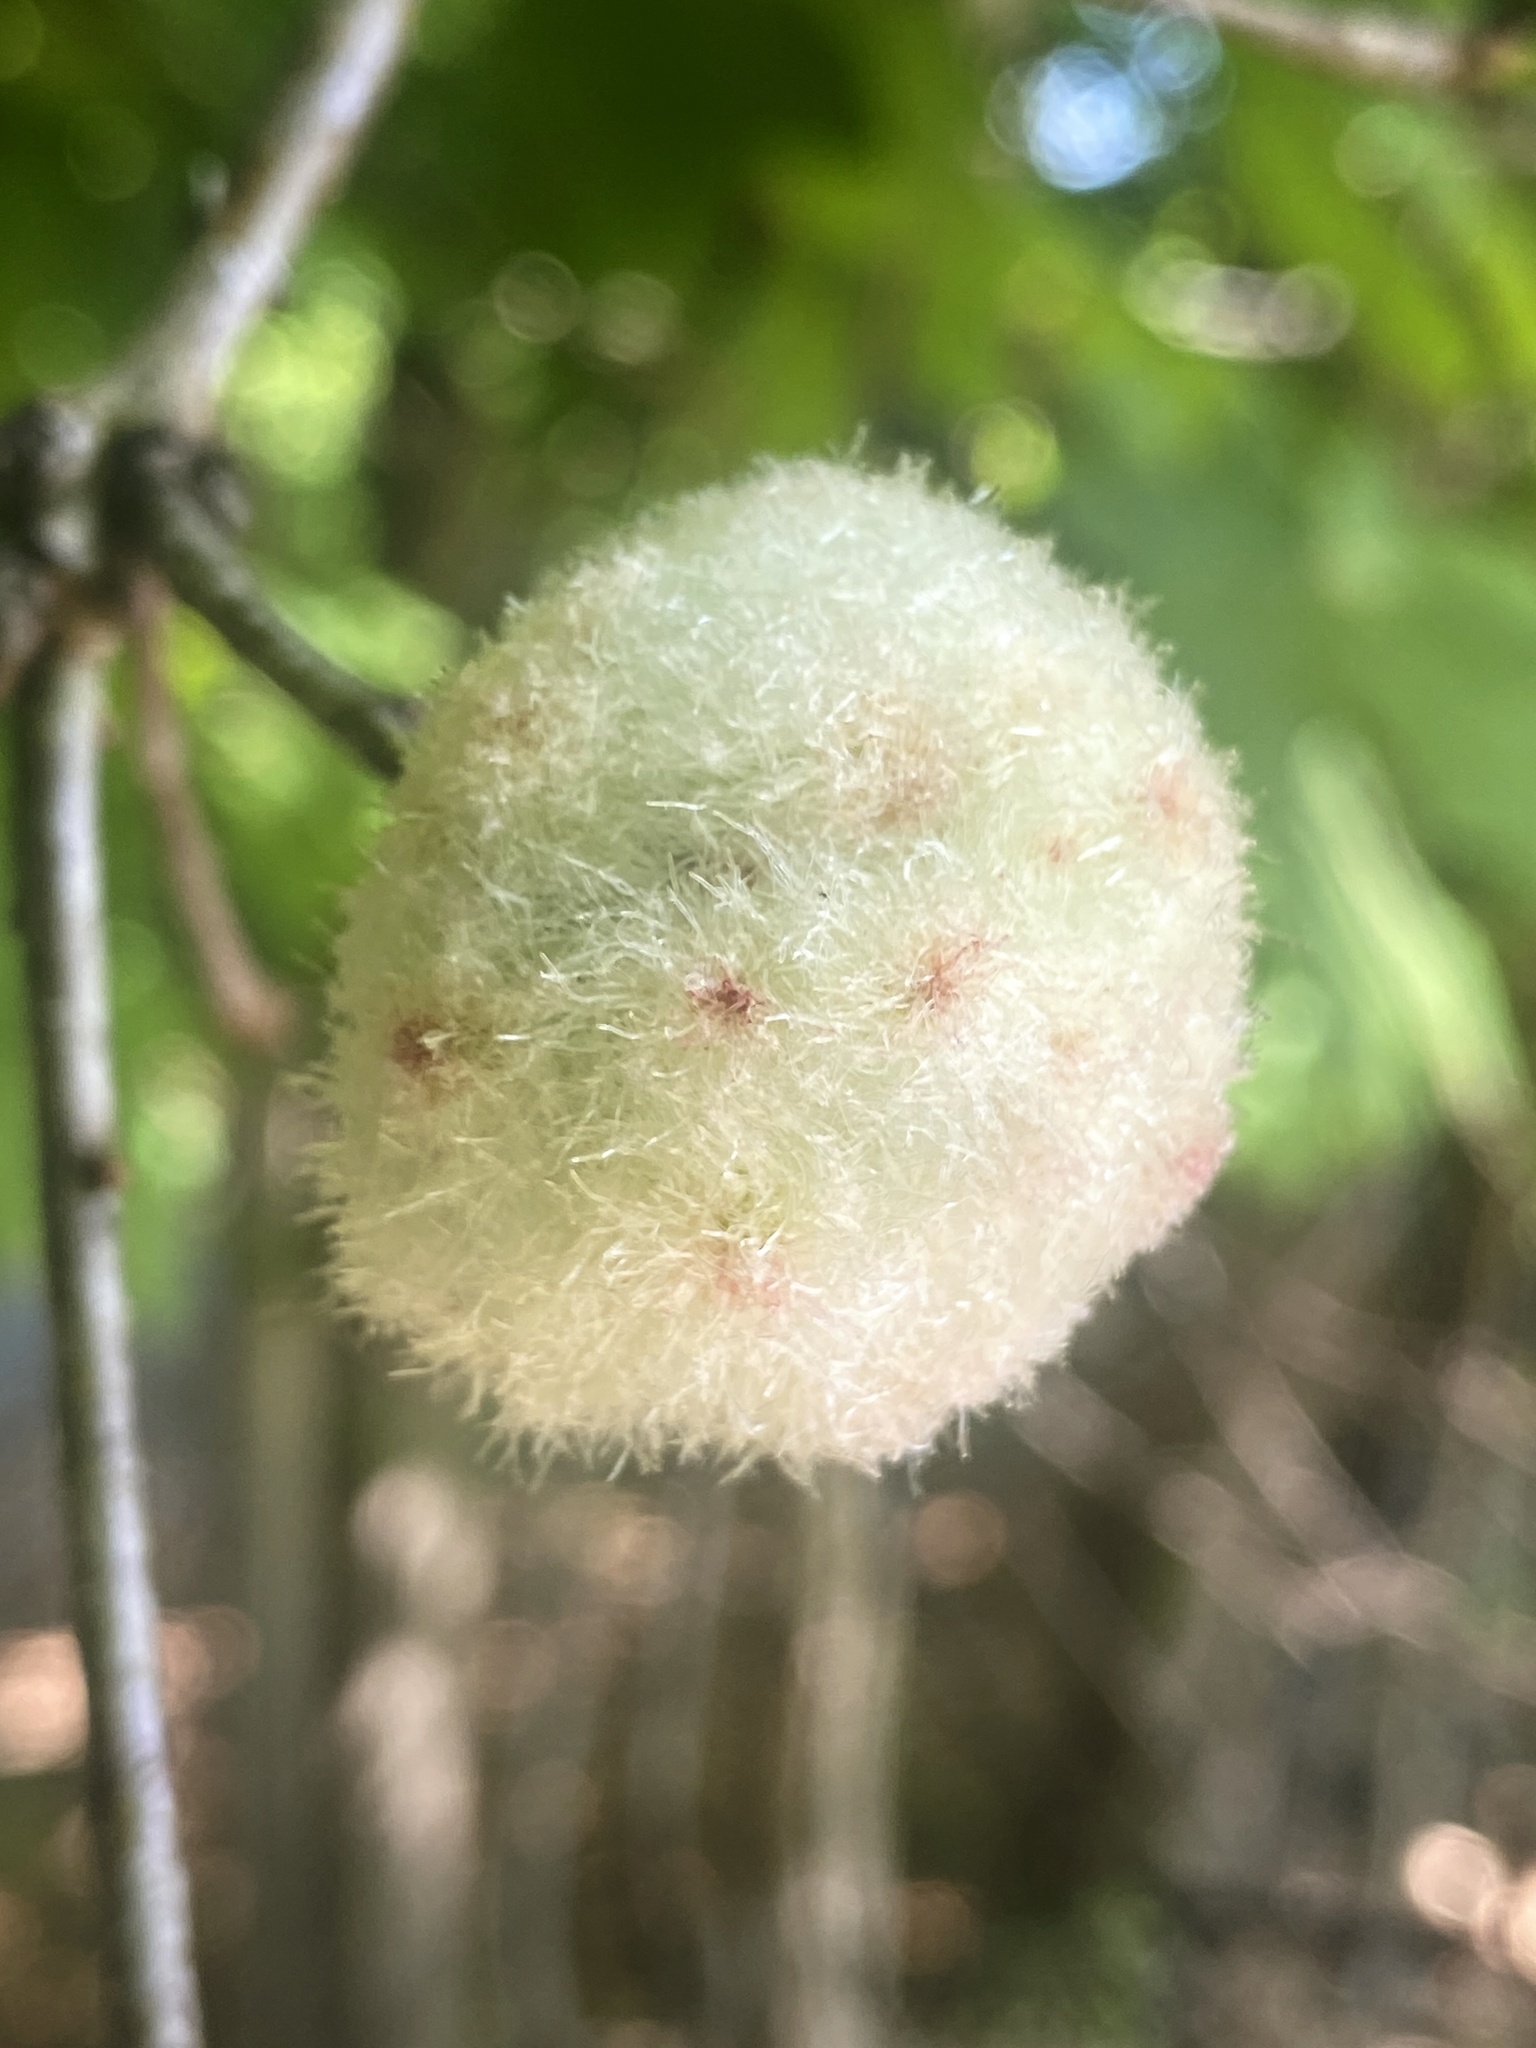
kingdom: Animalia
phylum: Arthropoda
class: Insecta
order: Hymenoptera
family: Cynipidae
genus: Callirhytis
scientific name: Callirhytis
